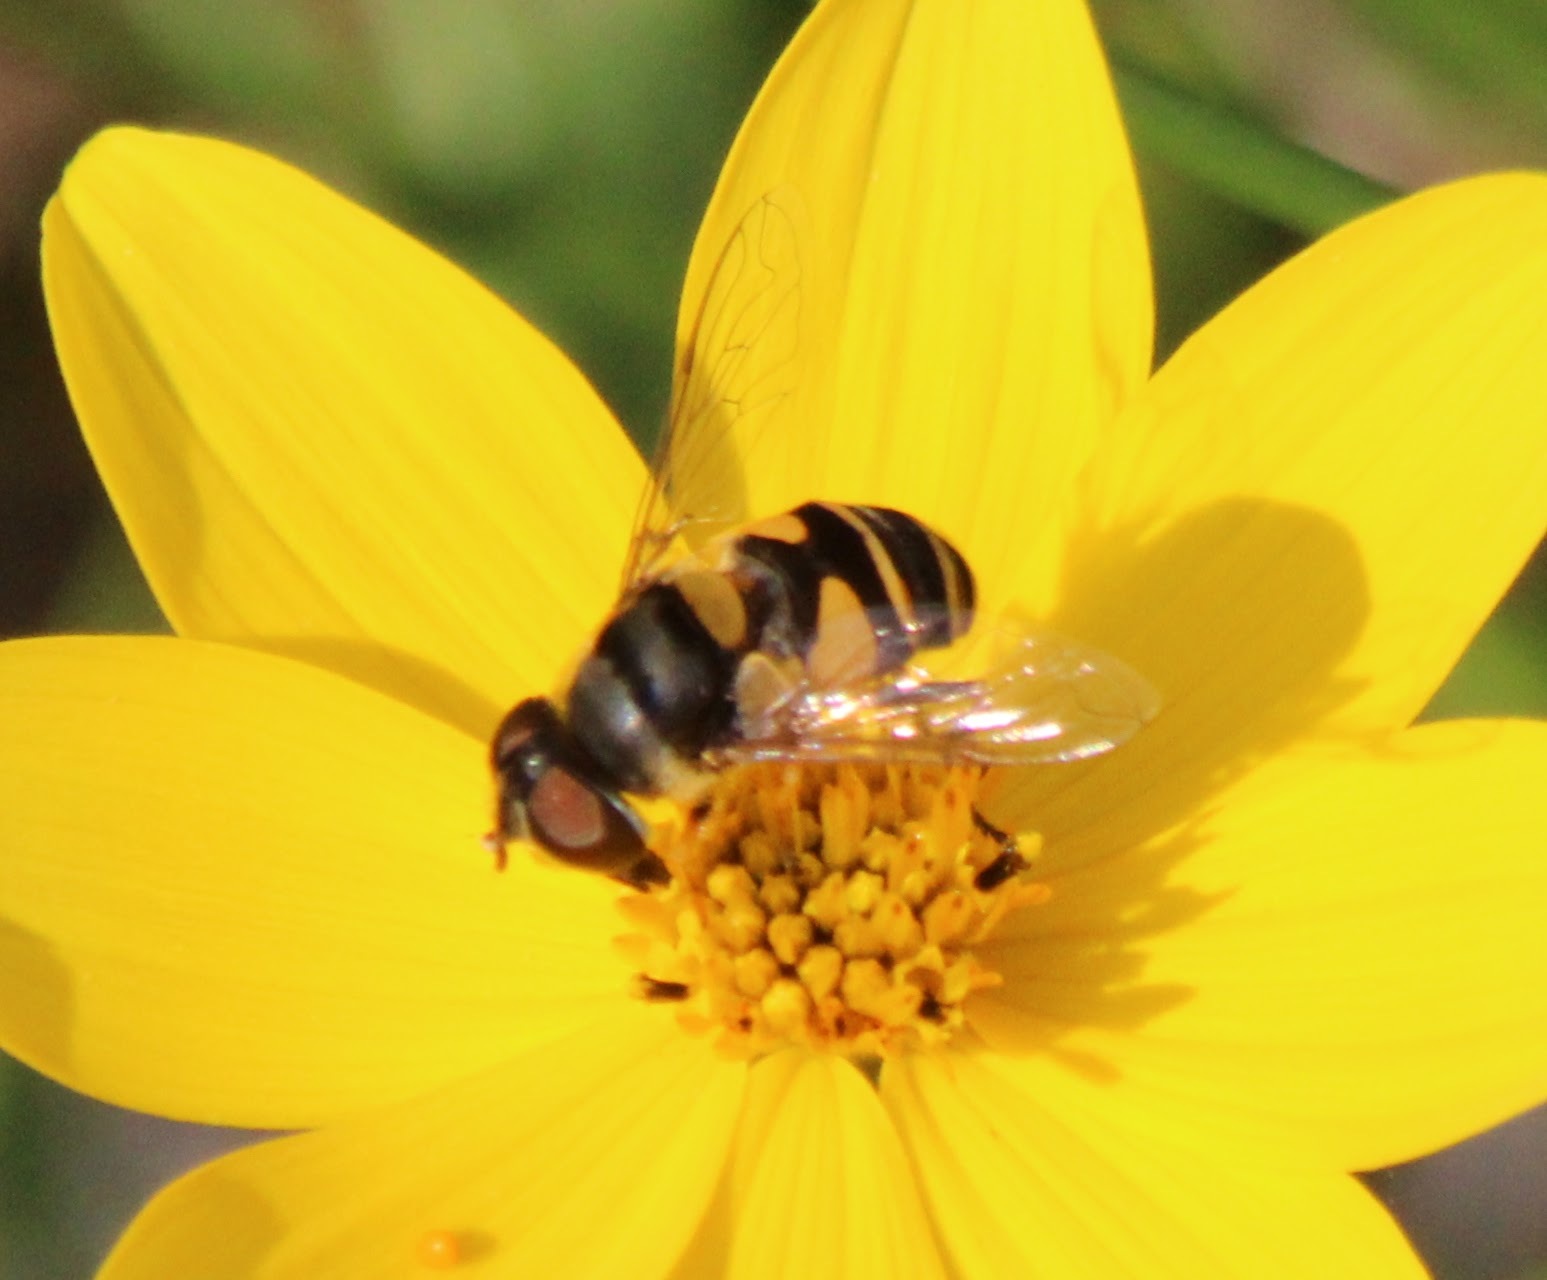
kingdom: Animalia
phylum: Arthropoda
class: Insecta
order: Diptera
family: Syrphidae
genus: Eristalis
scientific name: Eristalis transversa
